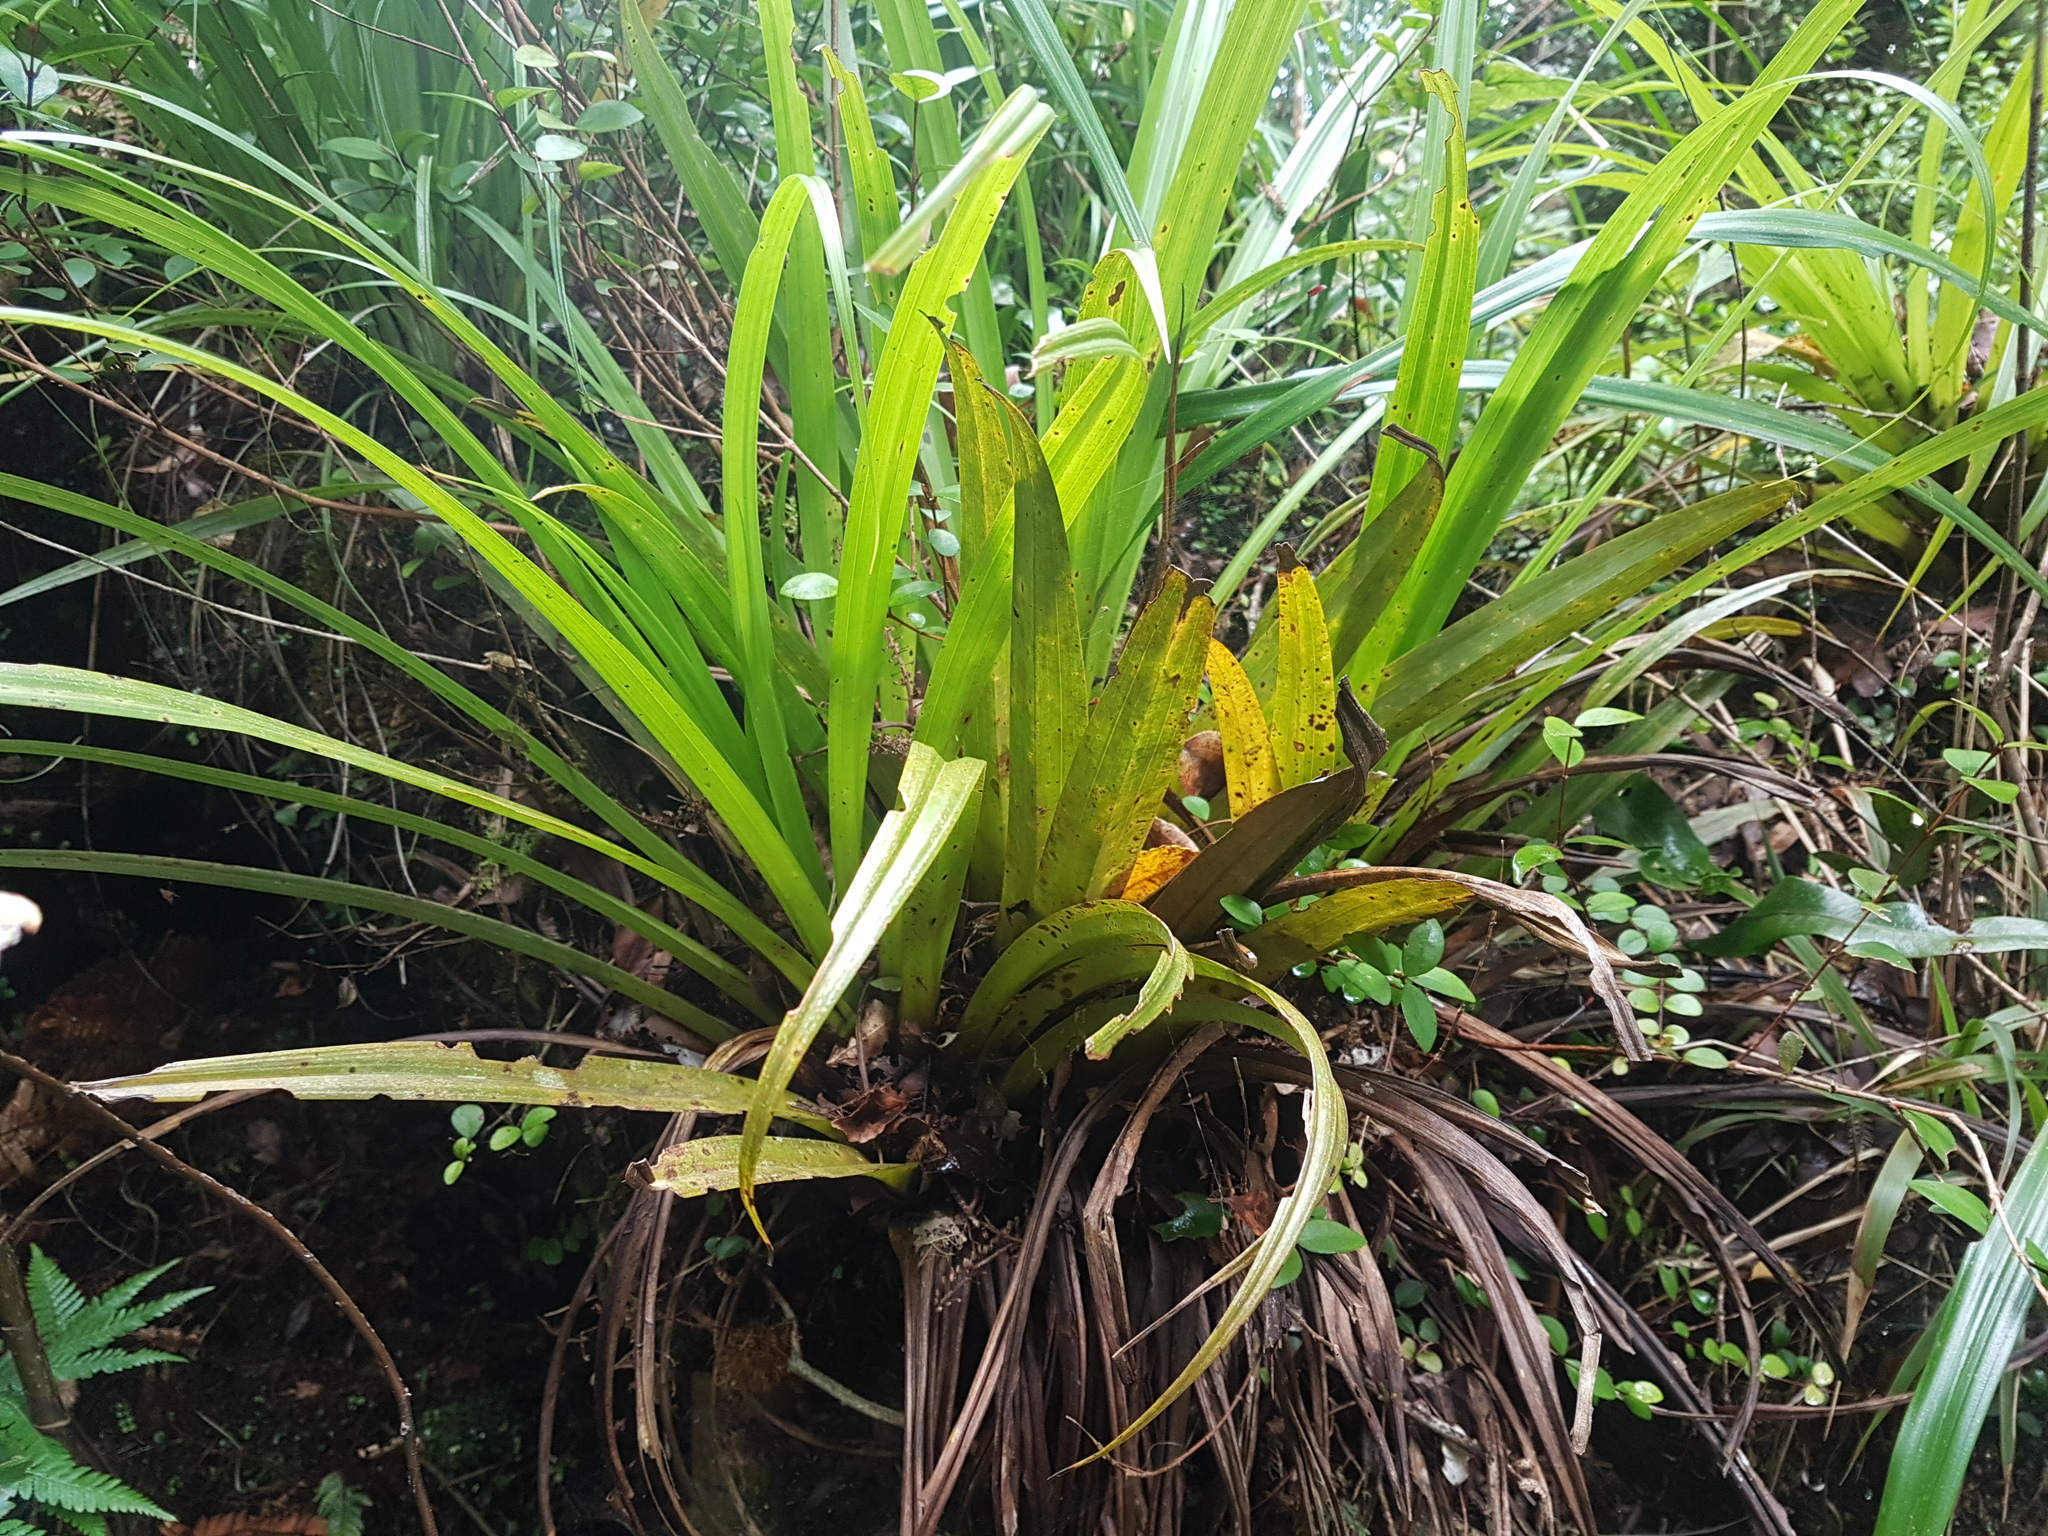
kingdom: Plantae
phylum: Tracheophyta
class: Liliopsida
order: Asparagales
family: Asteliaceae
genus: Astelia
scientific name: Astelia hastata
